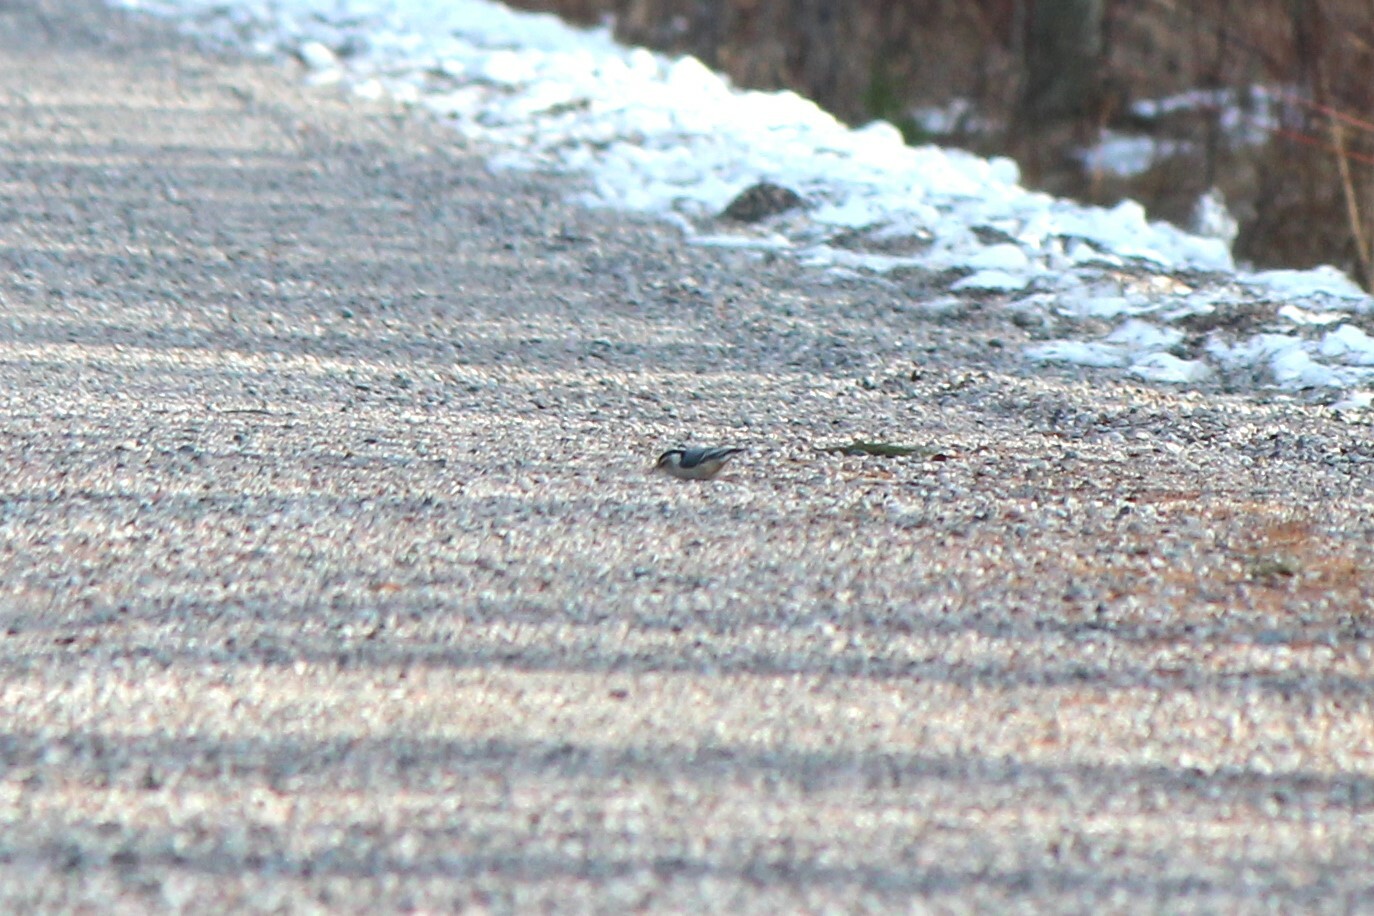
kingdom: Animalia
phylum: Chordata
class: Aves
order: Passeriformes
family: Sittidae
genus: Sitta
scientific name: Sitta carolinensis
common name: White-breasted nuthatch
